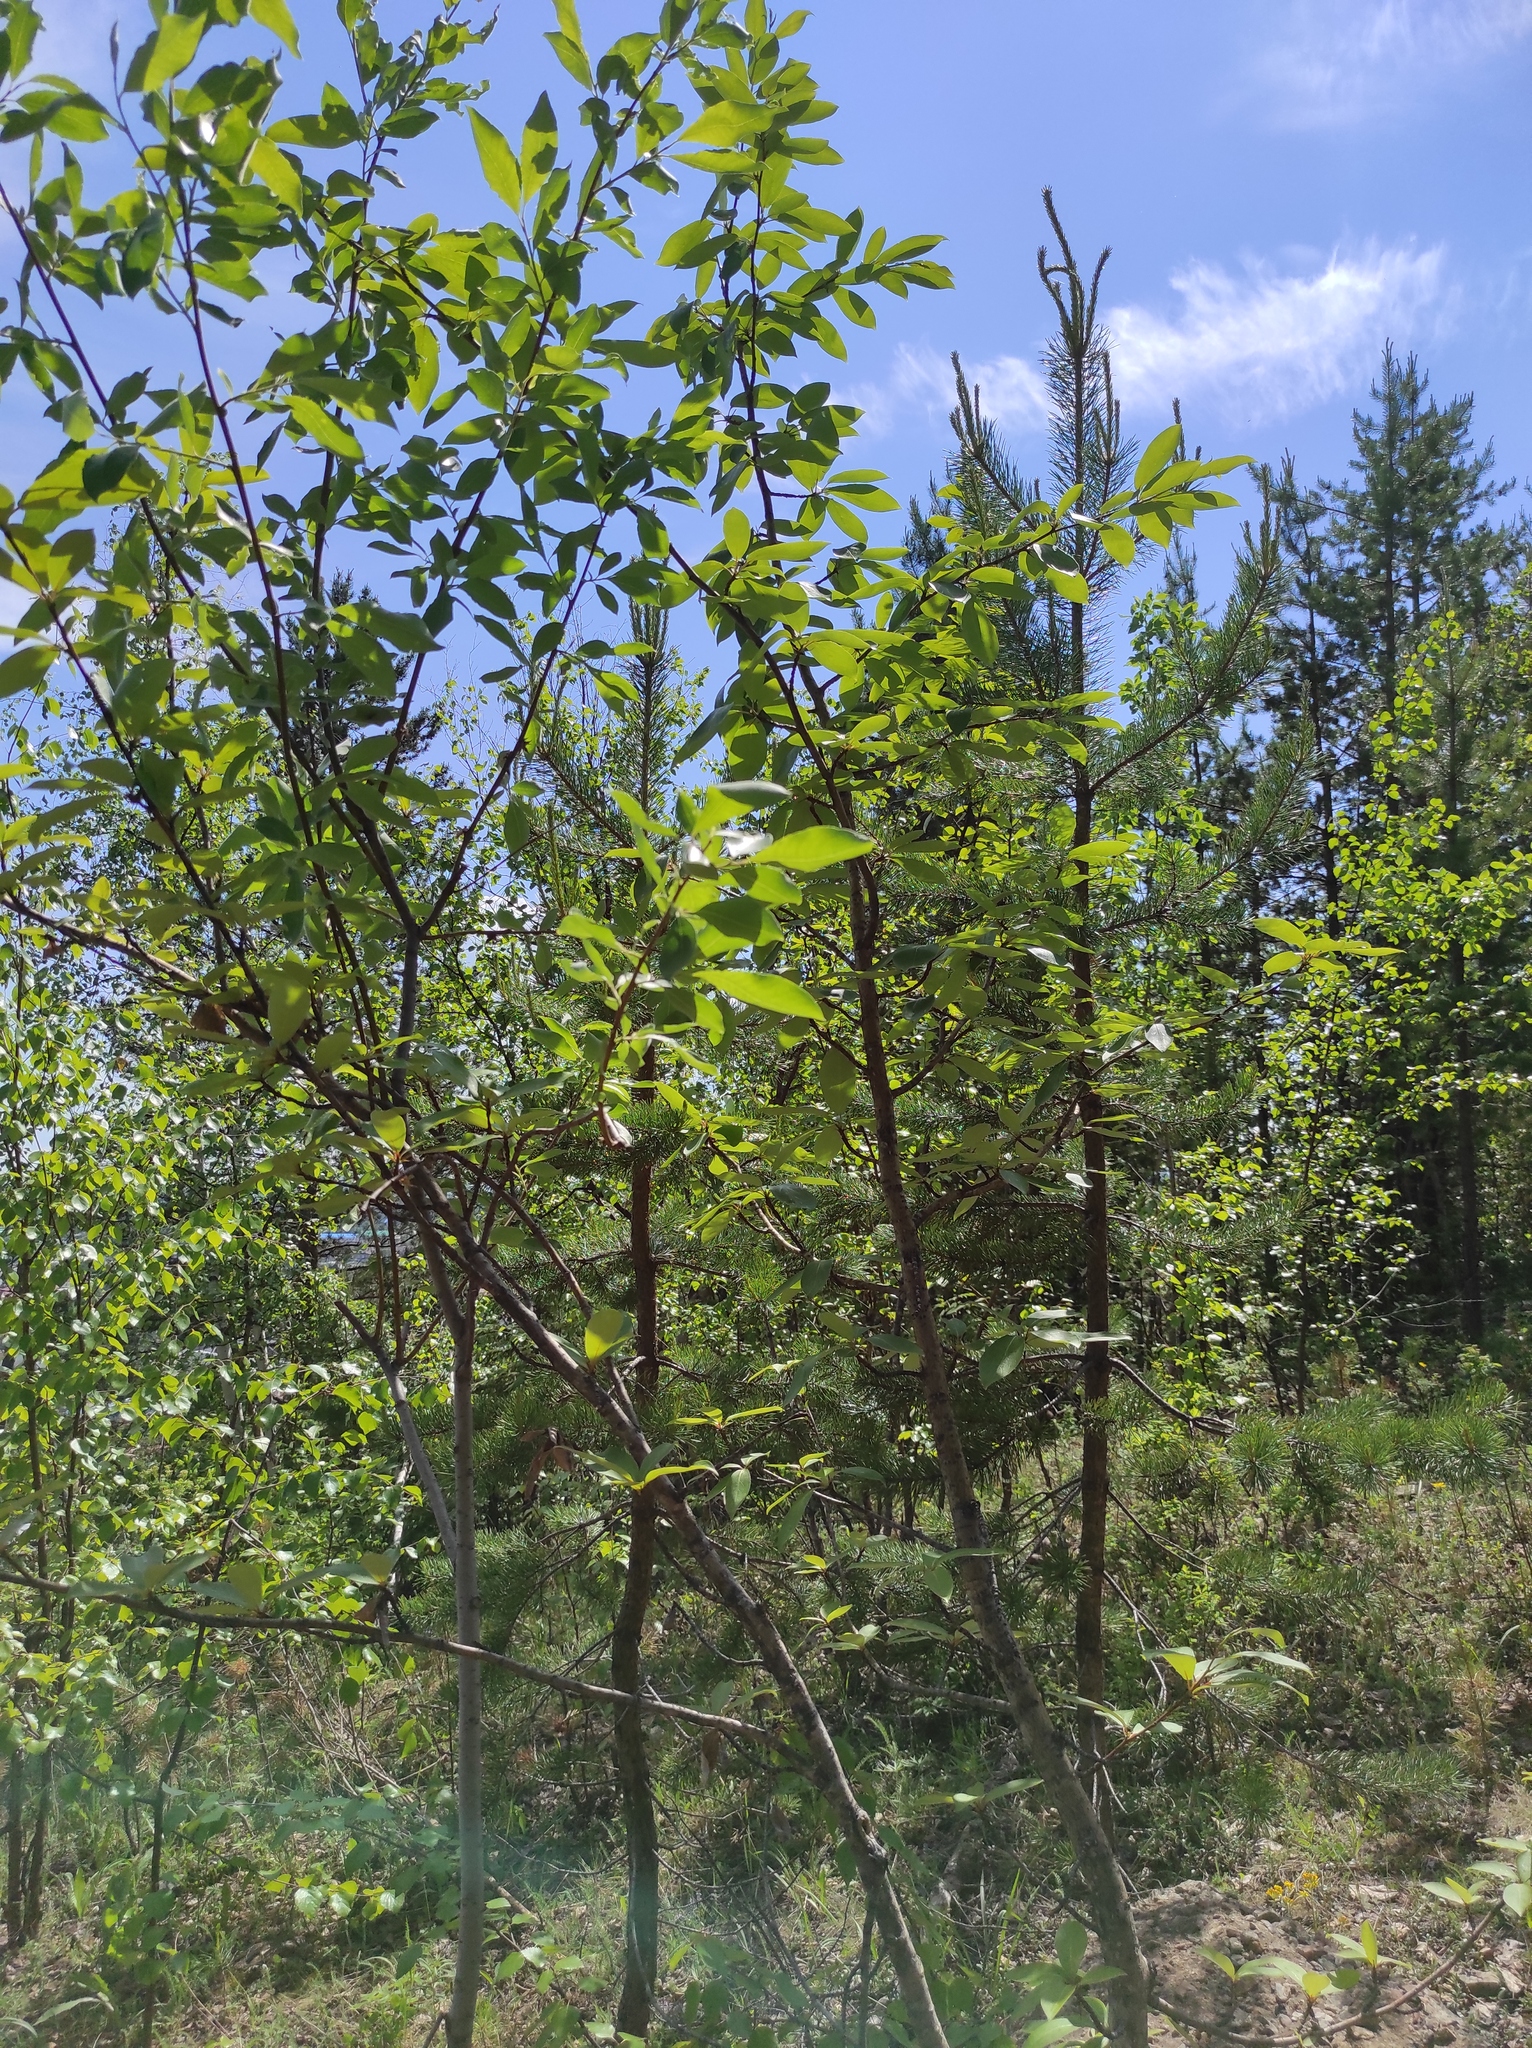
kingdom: Plantae
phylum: Tracheophyta
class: Pinopsida
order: Pinales
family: Pinaceae
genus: Pinus
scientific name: Pinus sylvestris
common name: Scots pine
